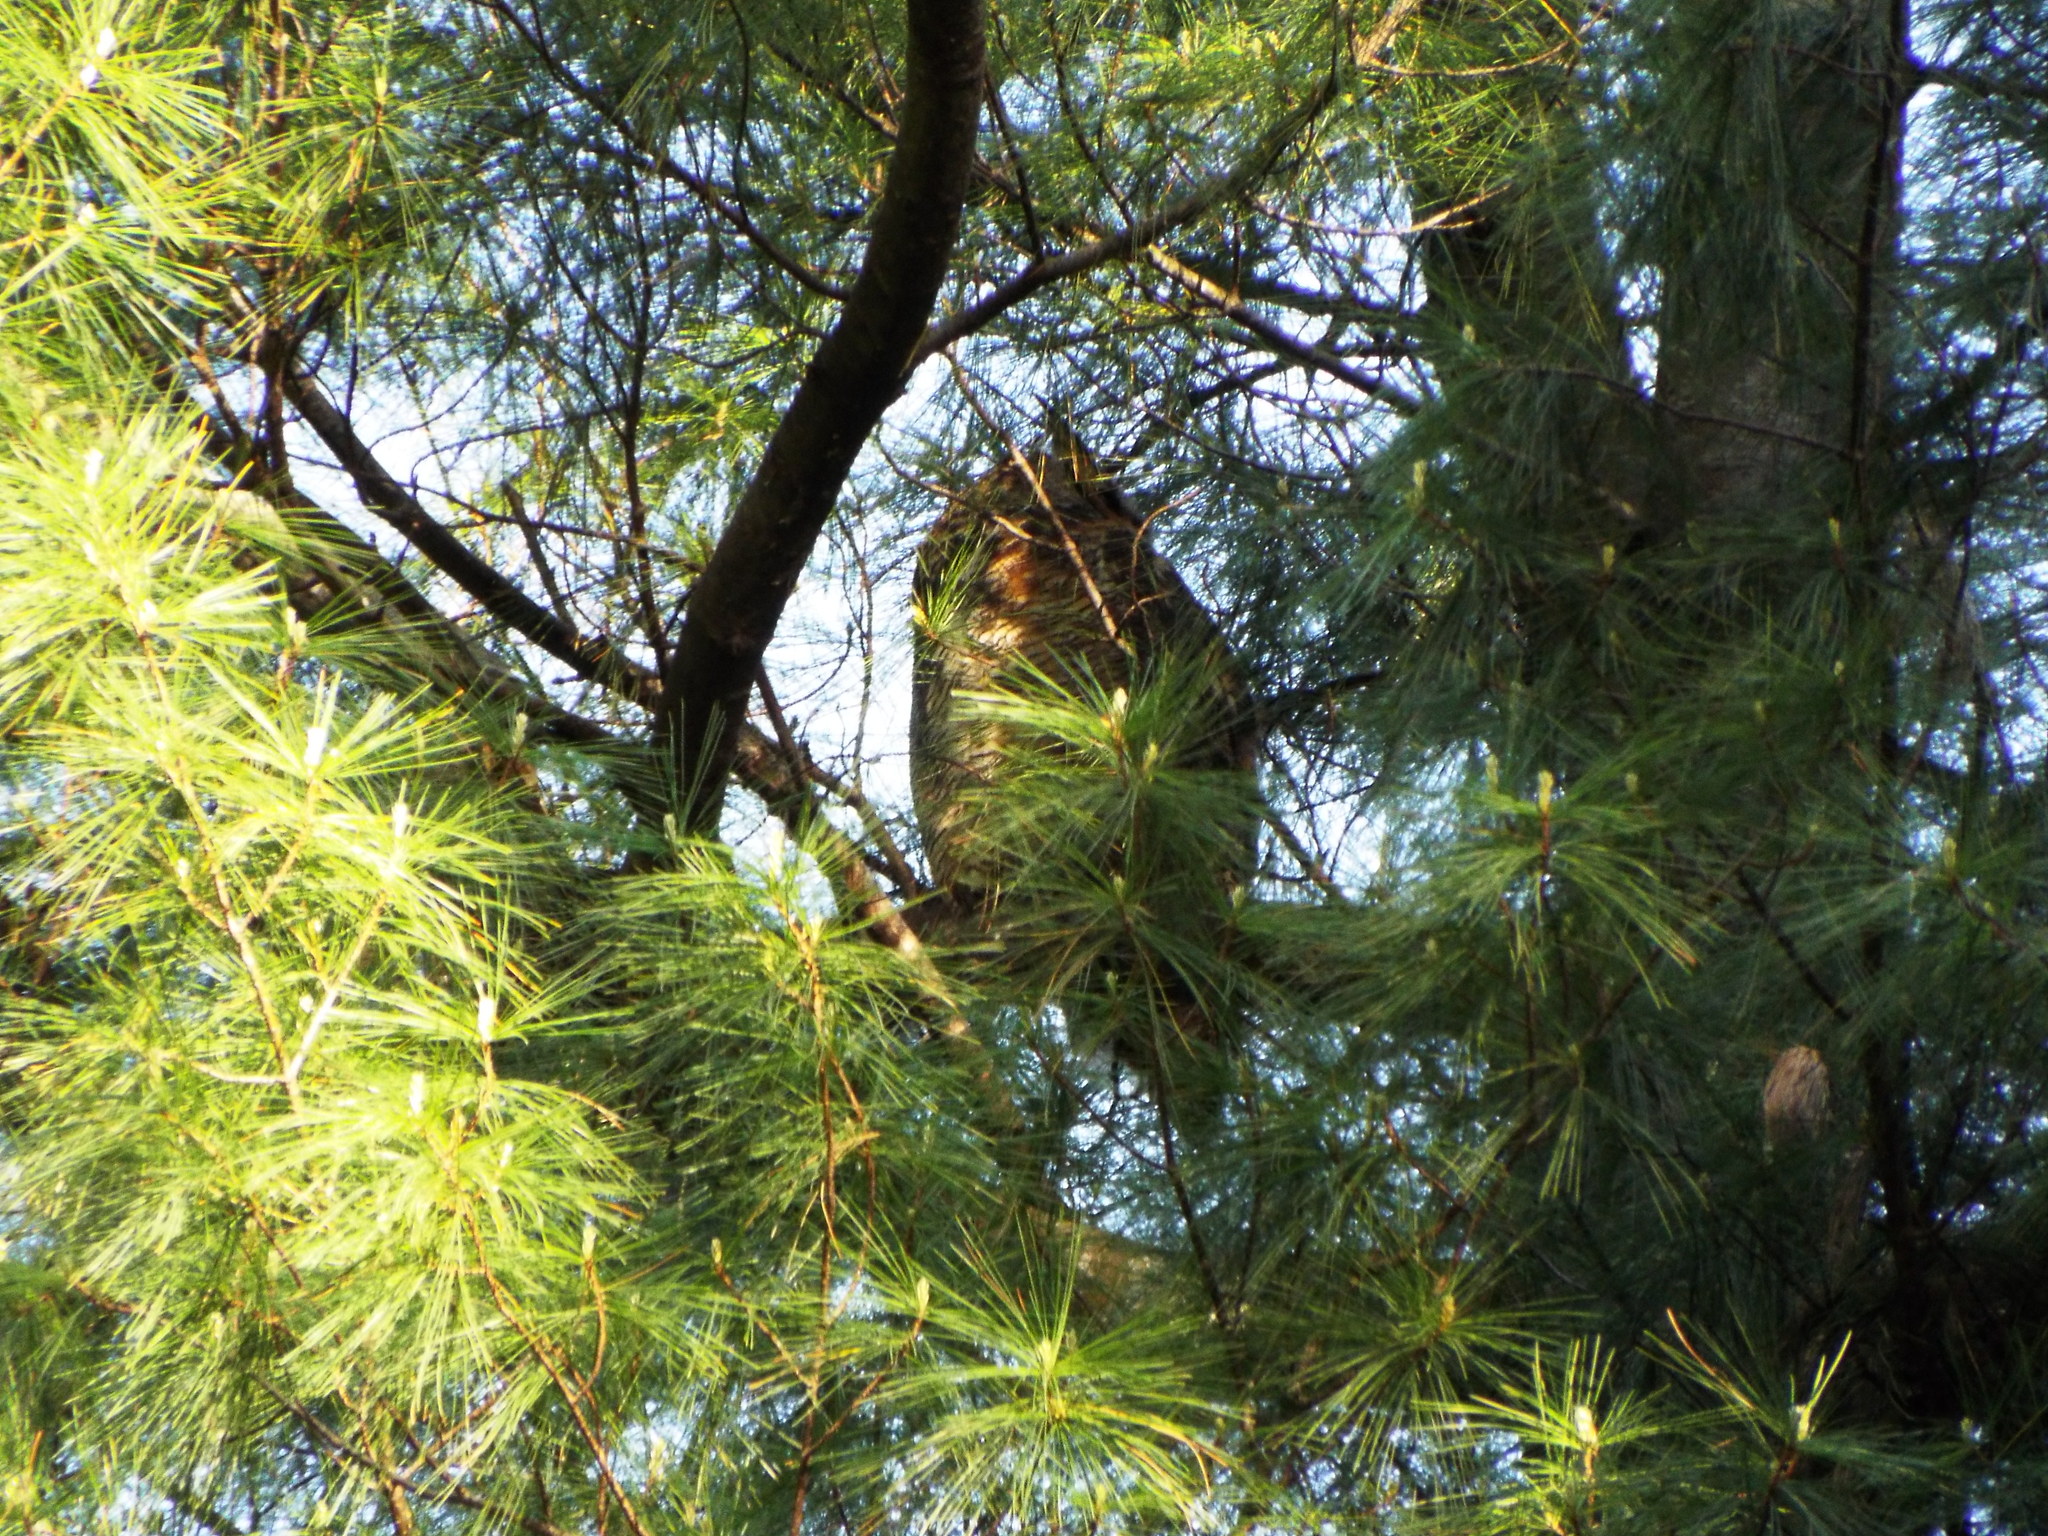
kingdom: Animalia
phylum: Chordata
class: Aves
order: Strigiformes
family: Strigidae
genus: Bubo
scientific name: Bubo virginianus
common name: Great horned owl
